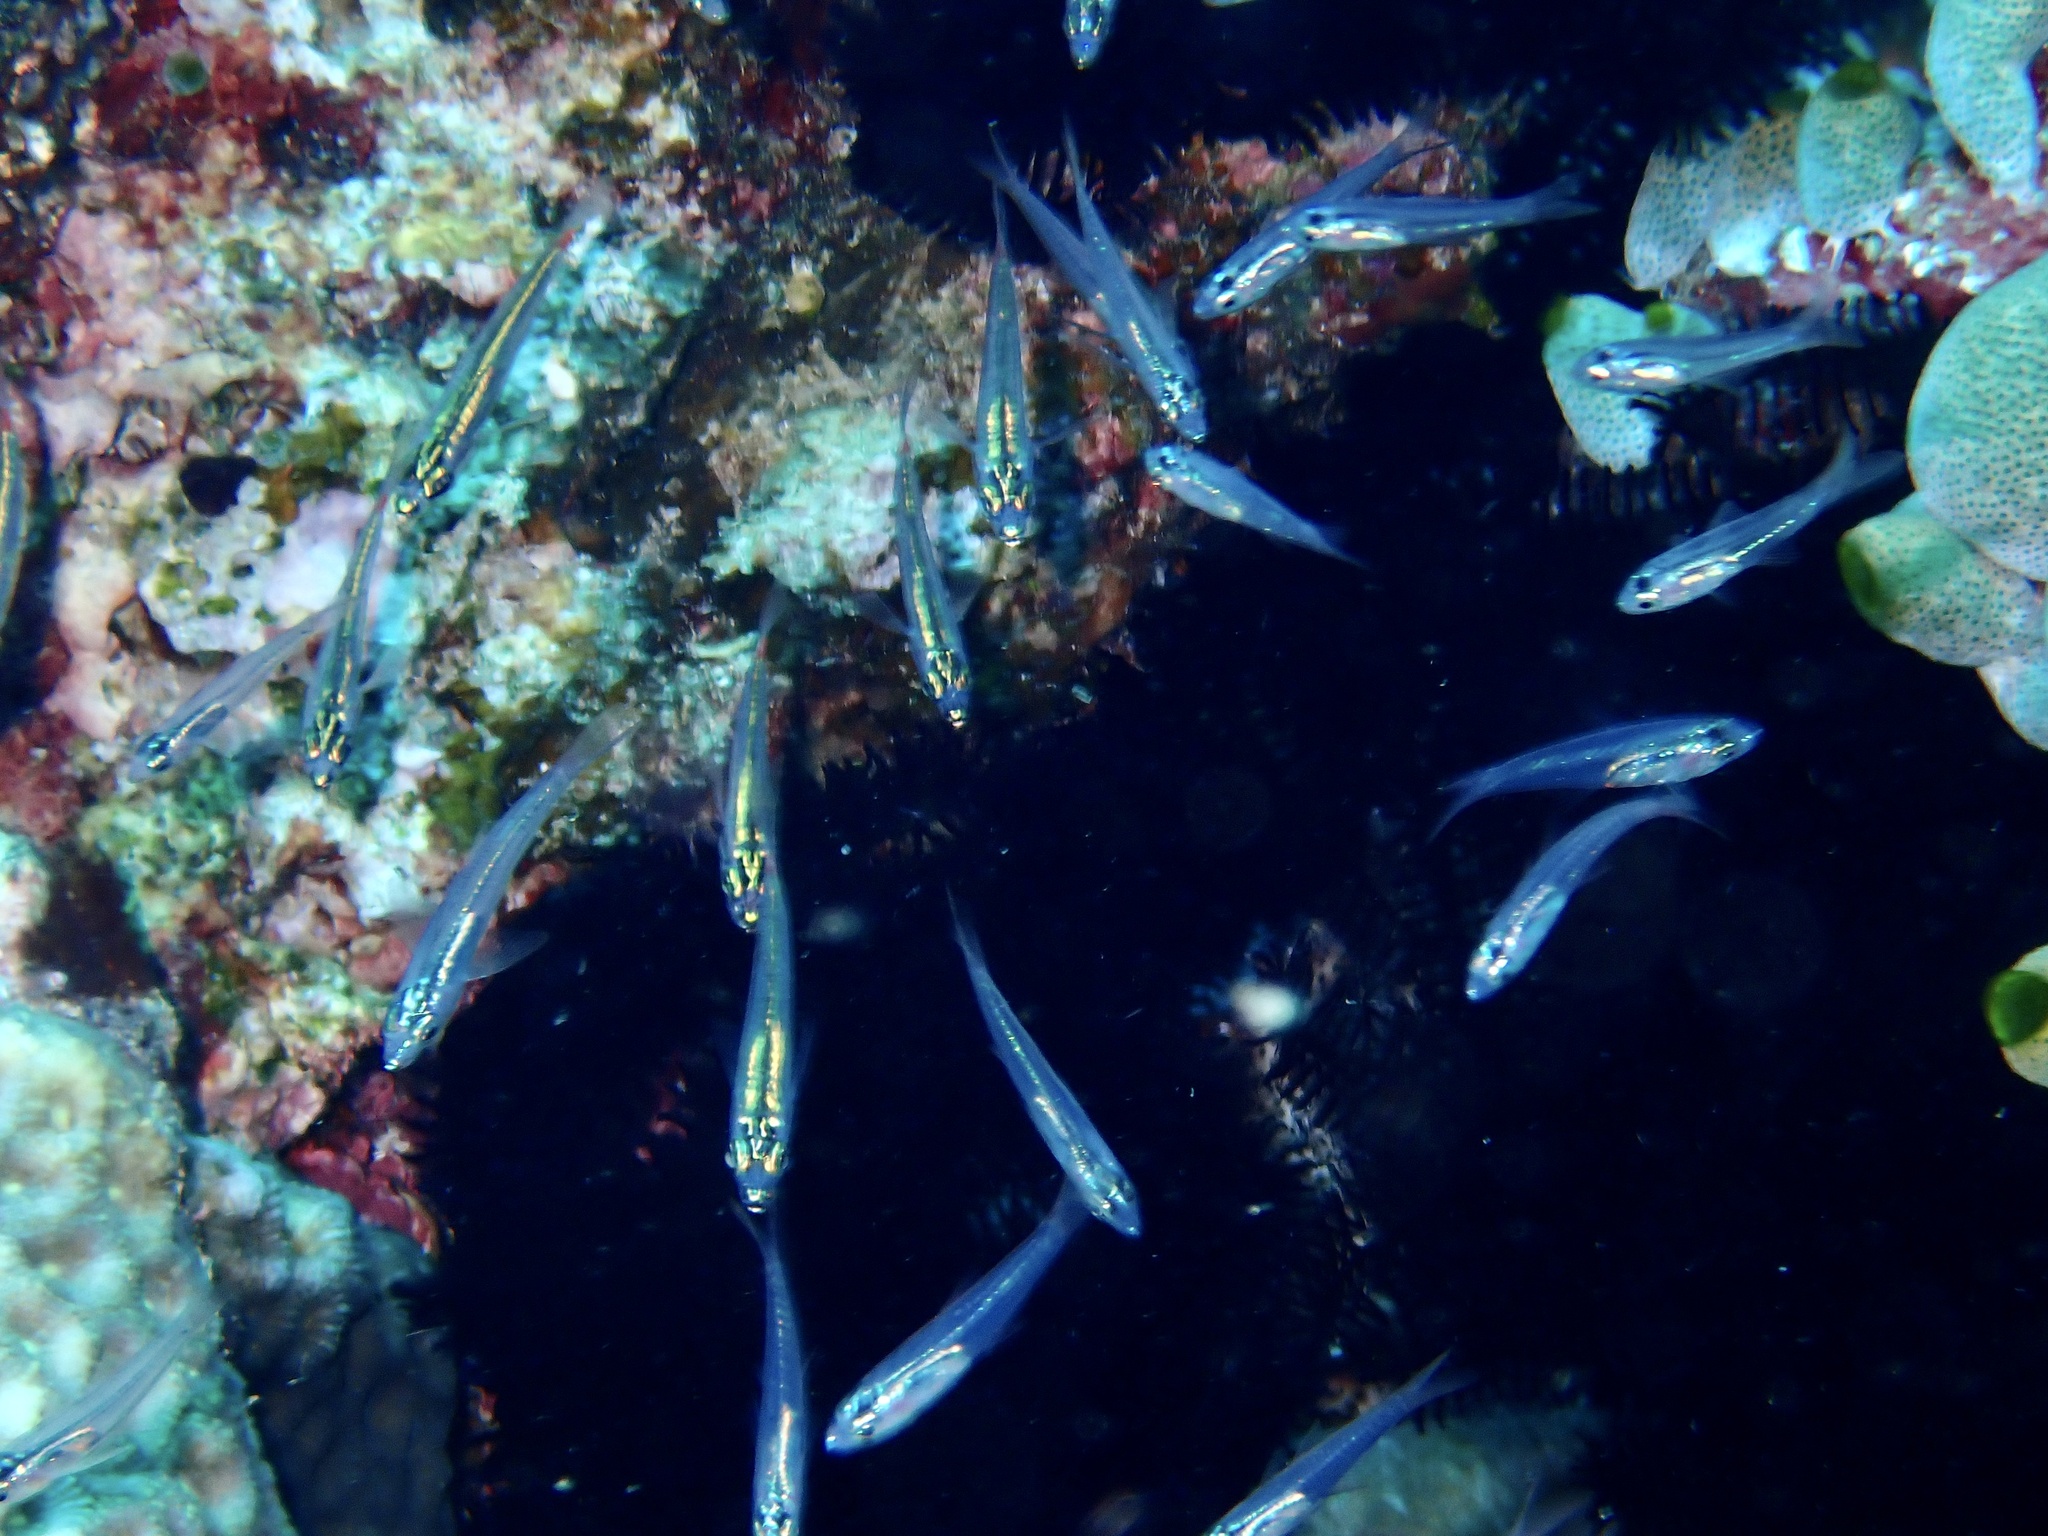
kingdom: Animalia
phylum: Chordata
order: Perciformes
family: Apogonidae
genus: Ostorhinchus
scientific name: Ostorhinchus parvulus
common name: Red-spot cardinalfish
